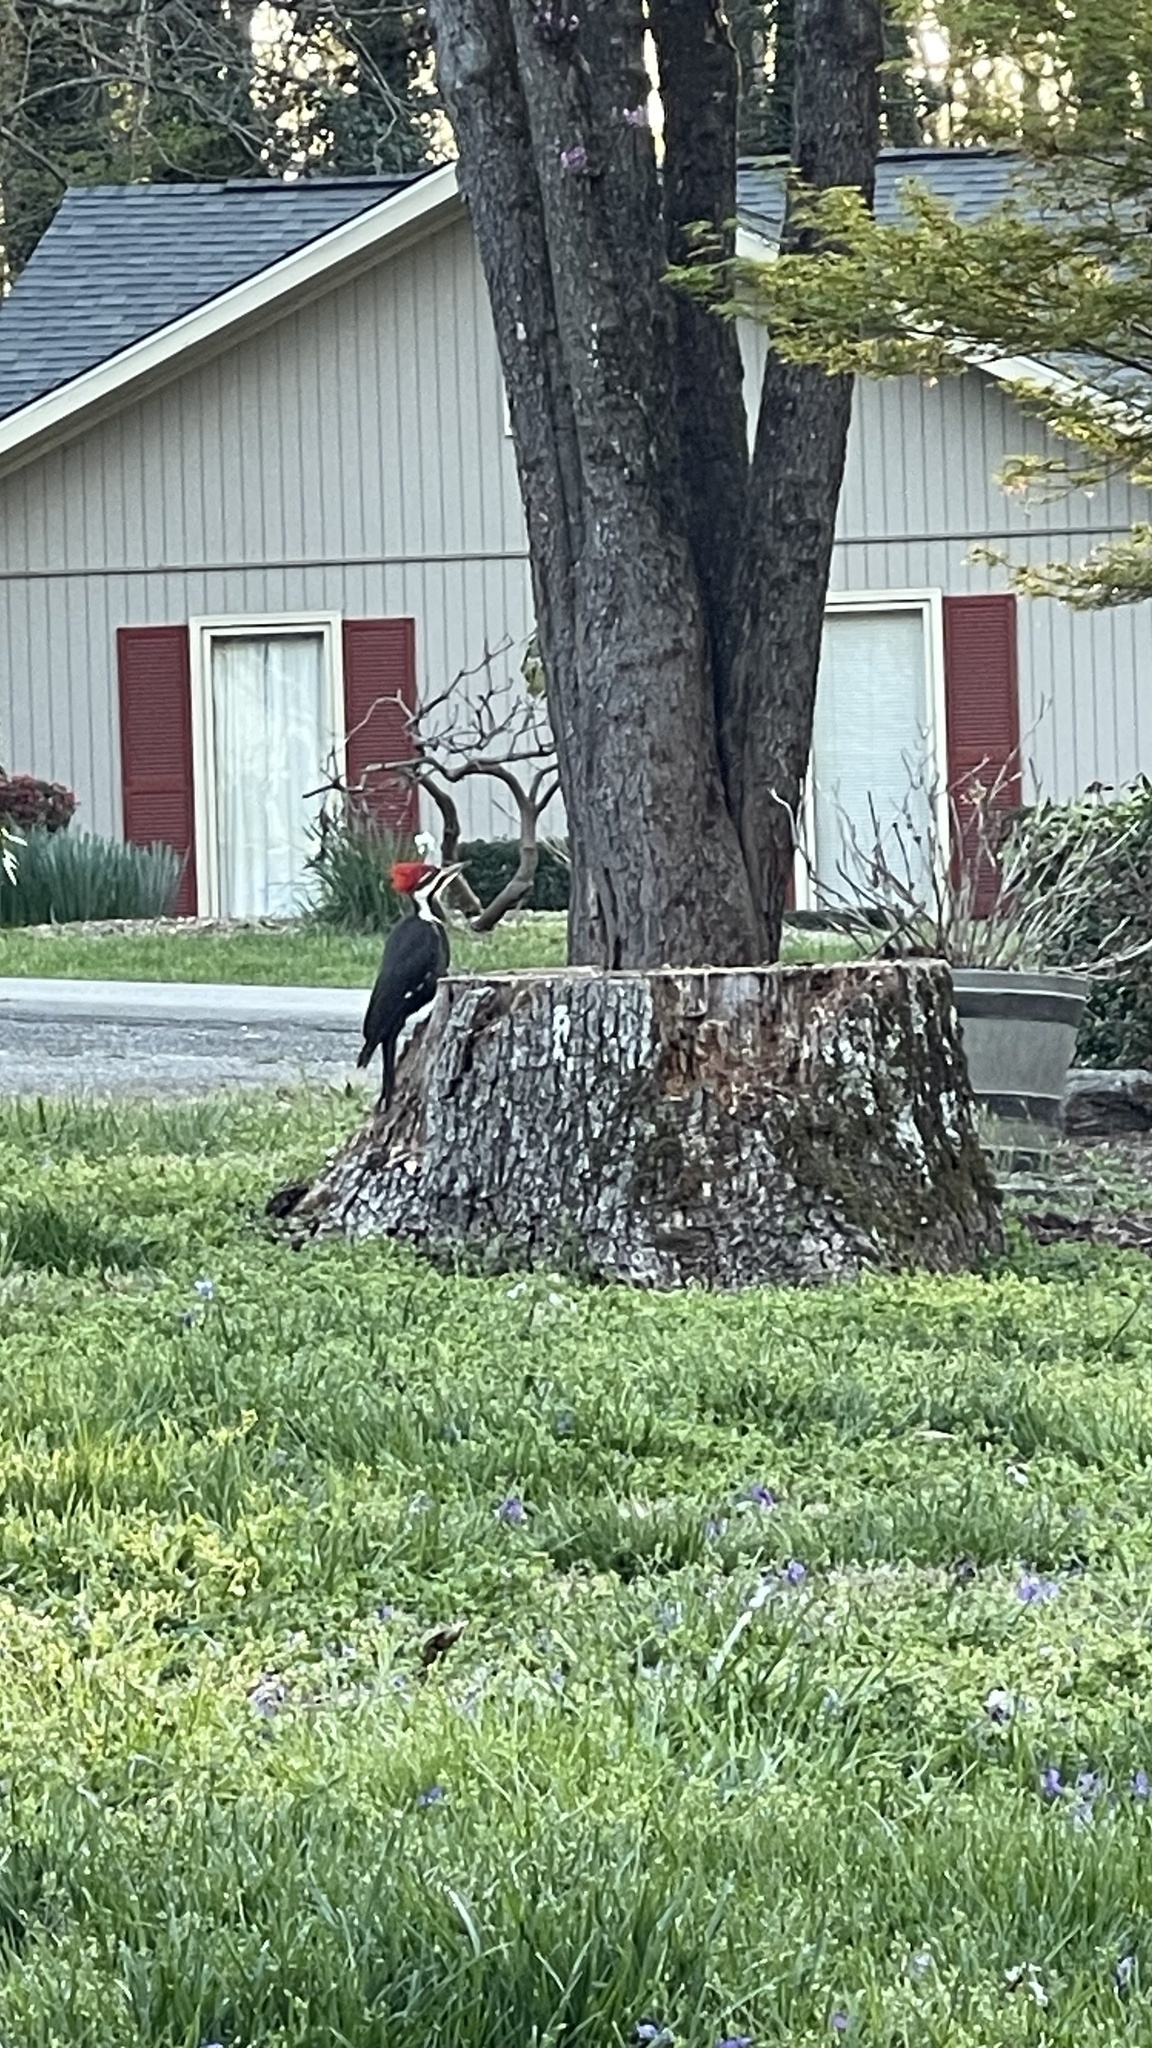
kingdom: Animalia
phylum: Chordata
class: Aves
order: Piciformes
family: Picidae
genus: Dryocopus
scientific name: Dryocopus pileatus
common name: Pileated woodpecker
